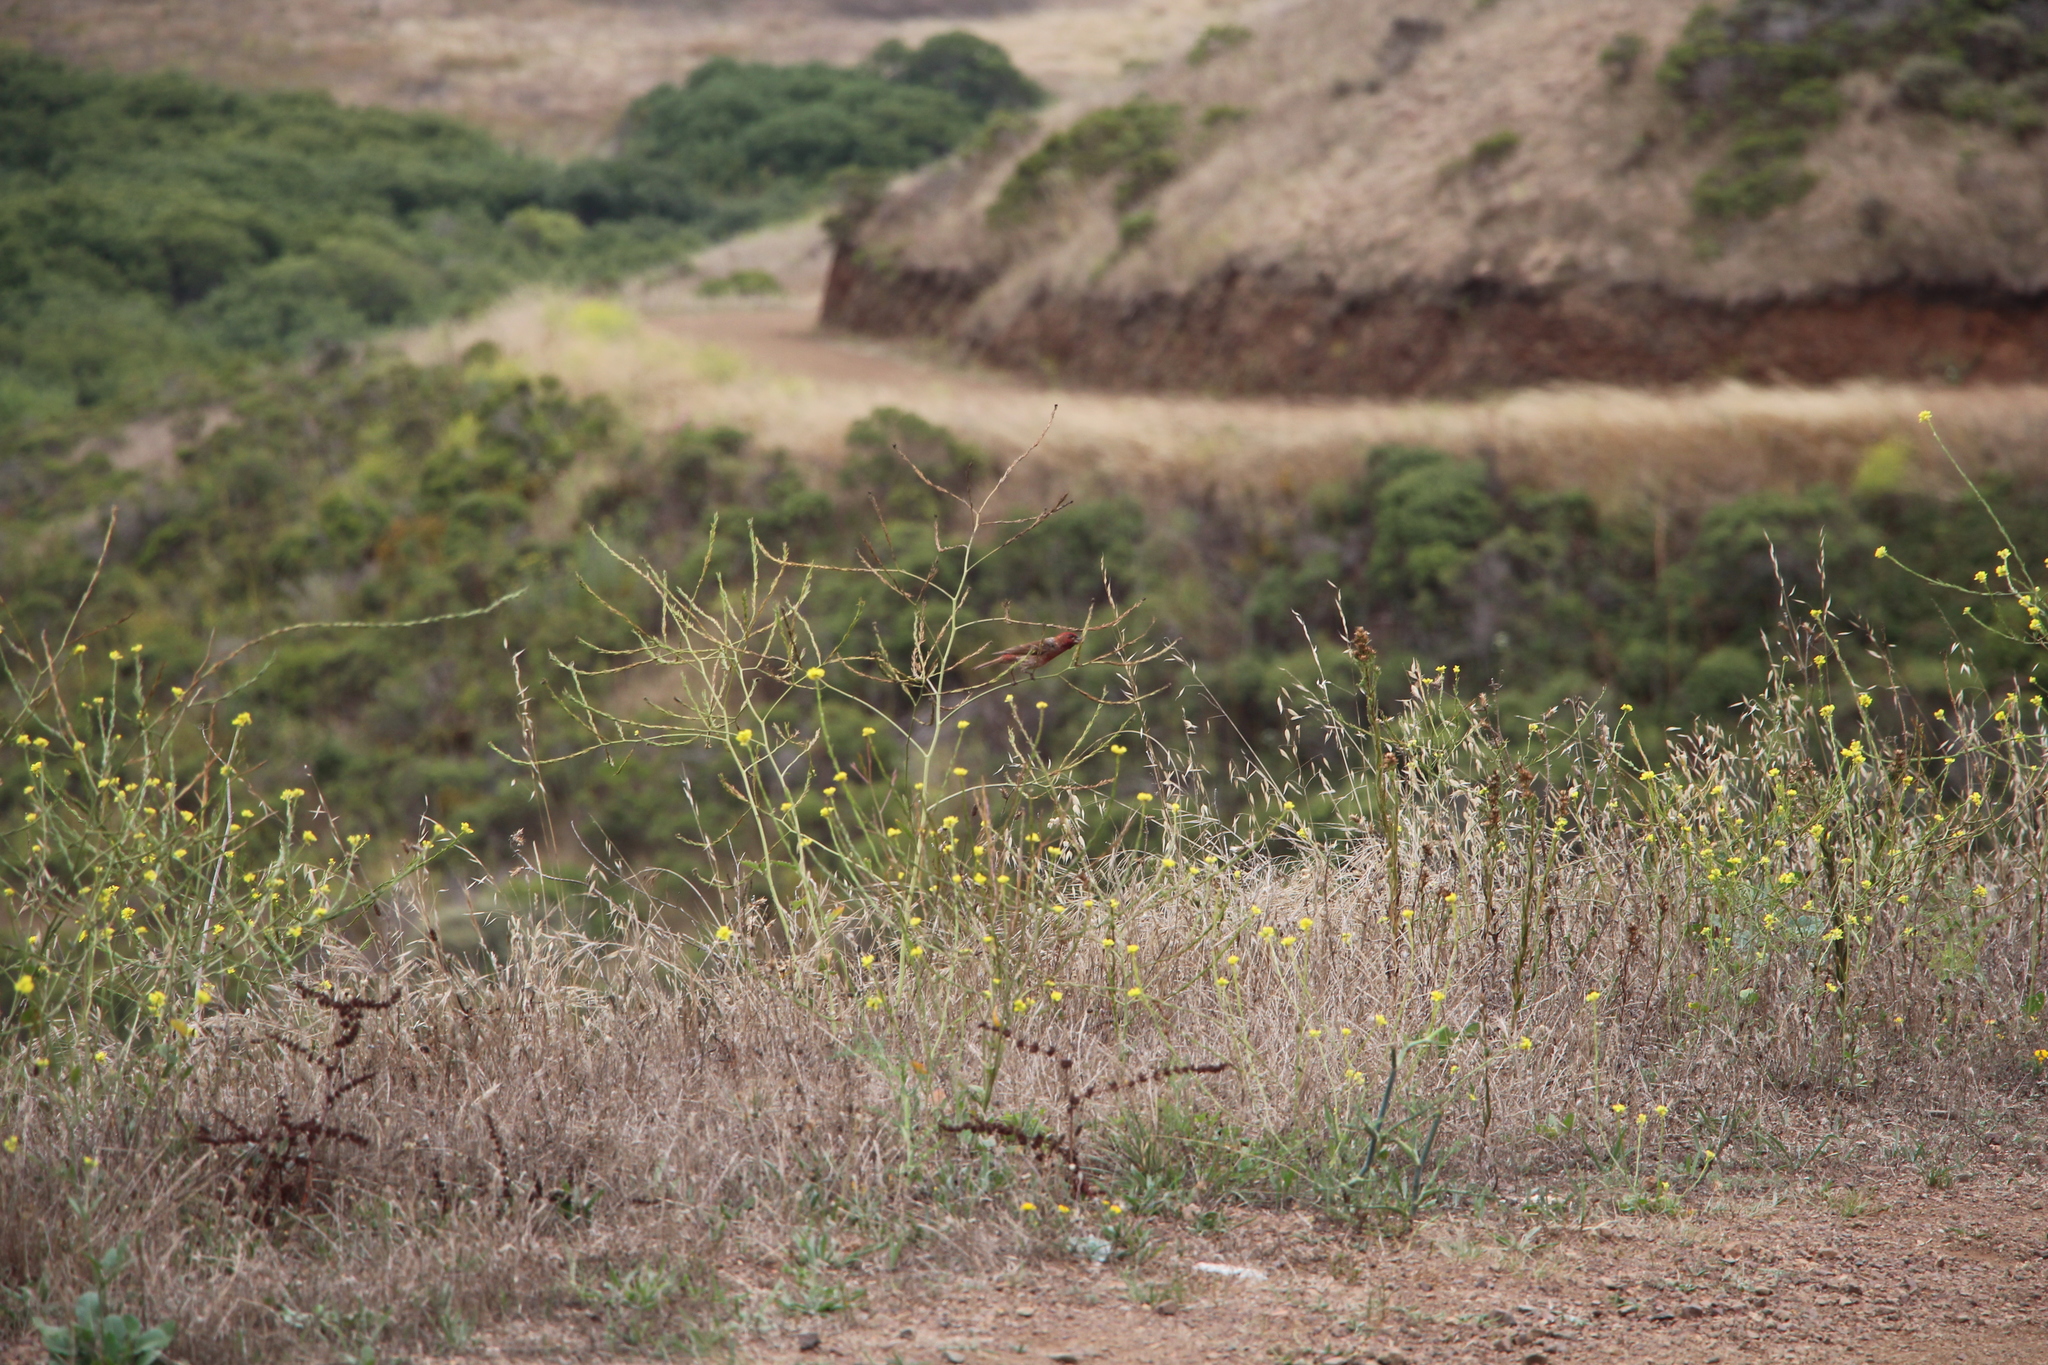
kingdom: Animalia
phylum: Chordata
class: Aves
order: Passeriformes
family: Fringillidae
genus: Haemorhous
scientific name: Haemorhous mexicanus
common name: House finch
